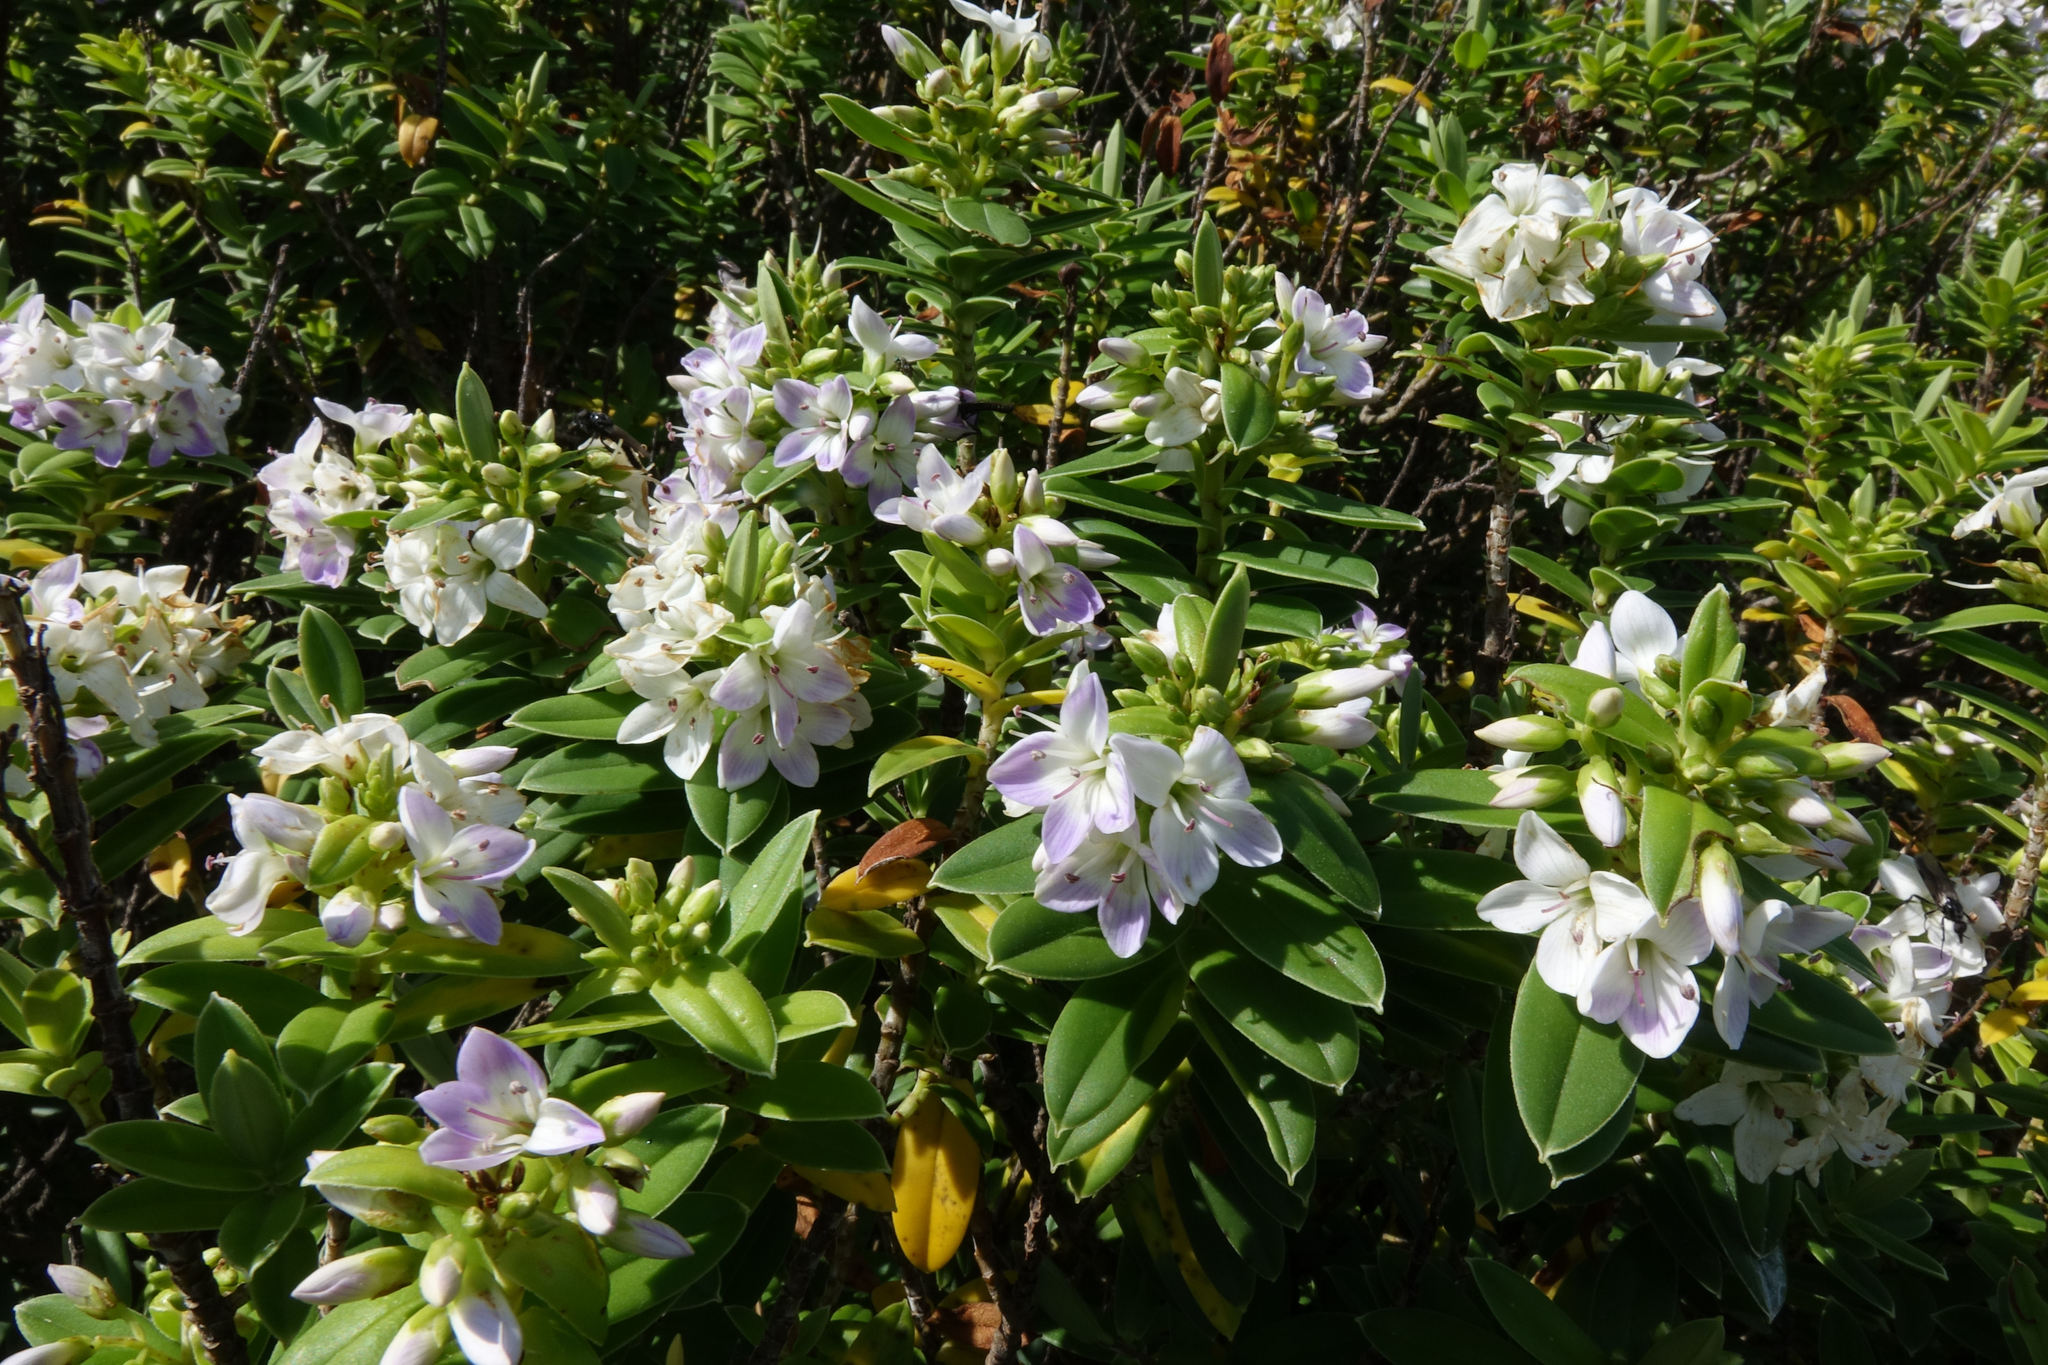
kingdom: Plantae
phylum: Tracheophyta
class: Magnoliopsida
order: Lamiales
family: Plantaginaceae
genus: Veronica
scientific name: Veronica elliptica
